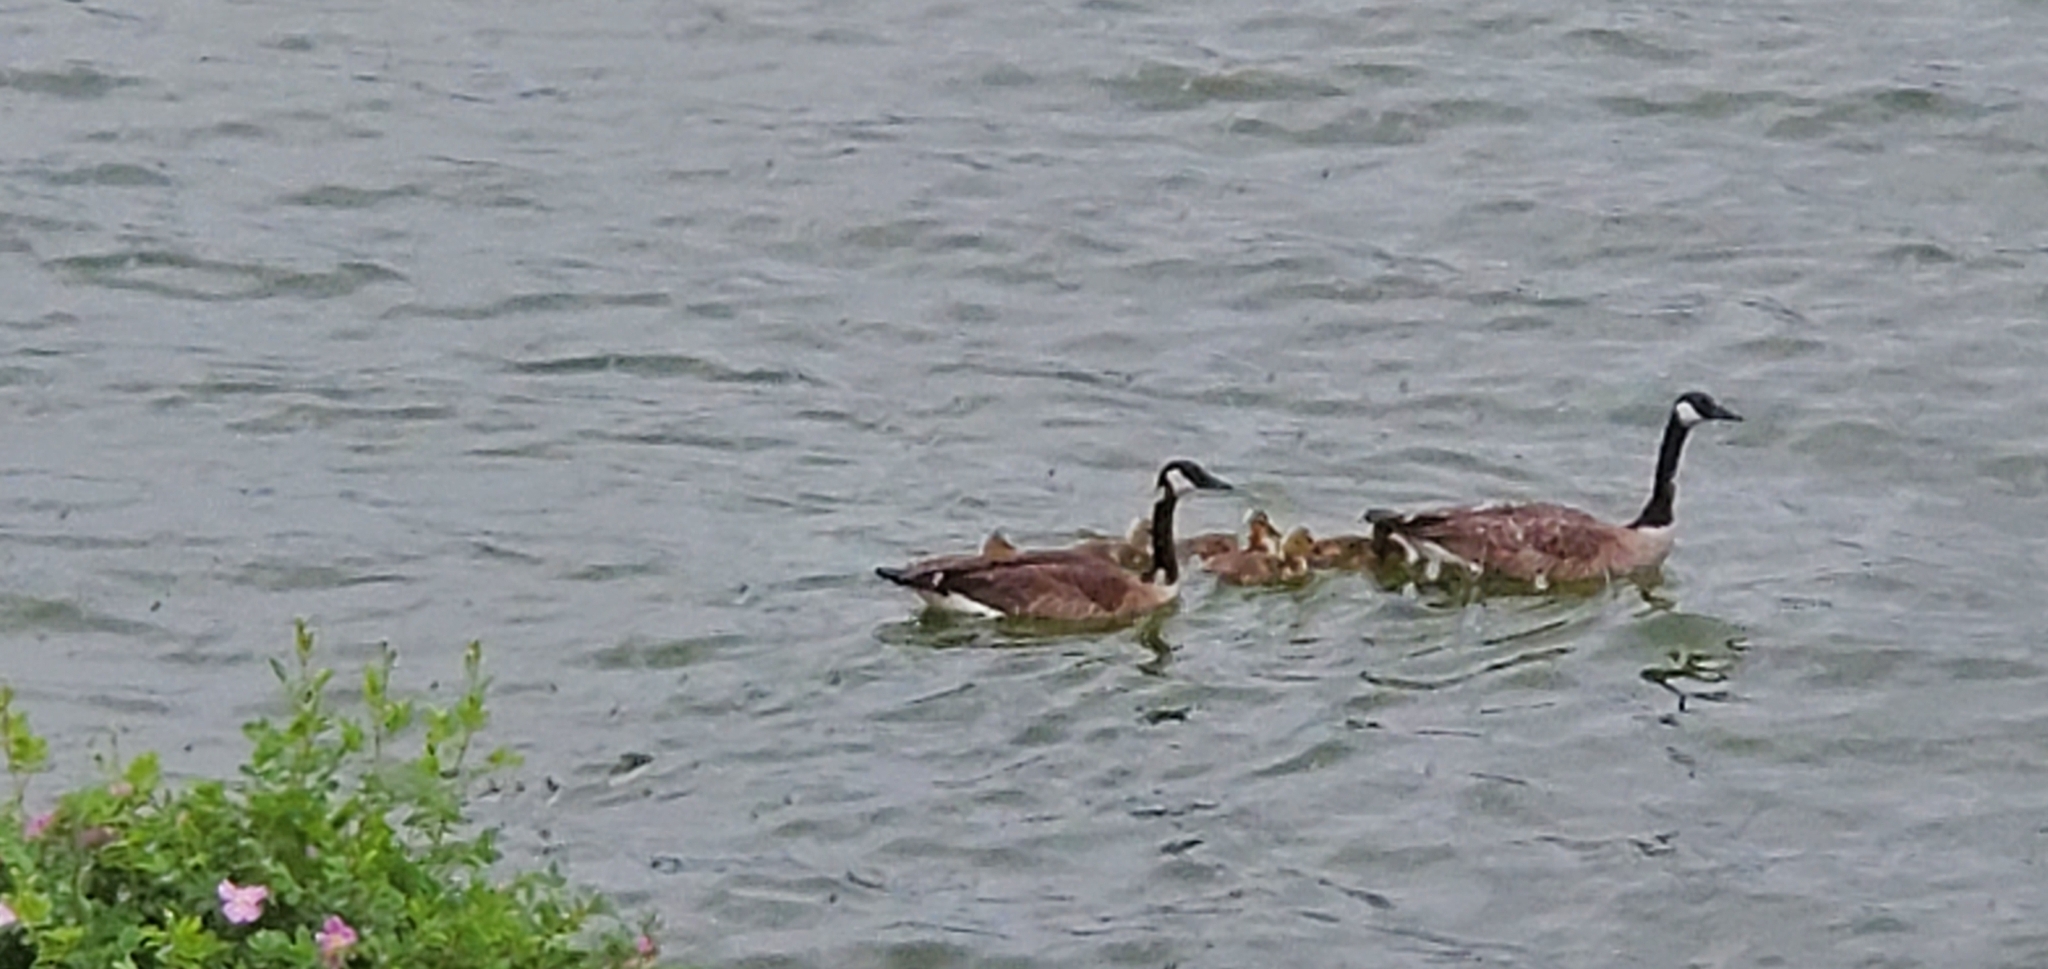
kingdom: Animalia
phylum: Chordata
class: Aves
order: Anseriformes
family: Anatidae
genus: Branta
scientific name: Branta canadensis
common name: Canada goose
